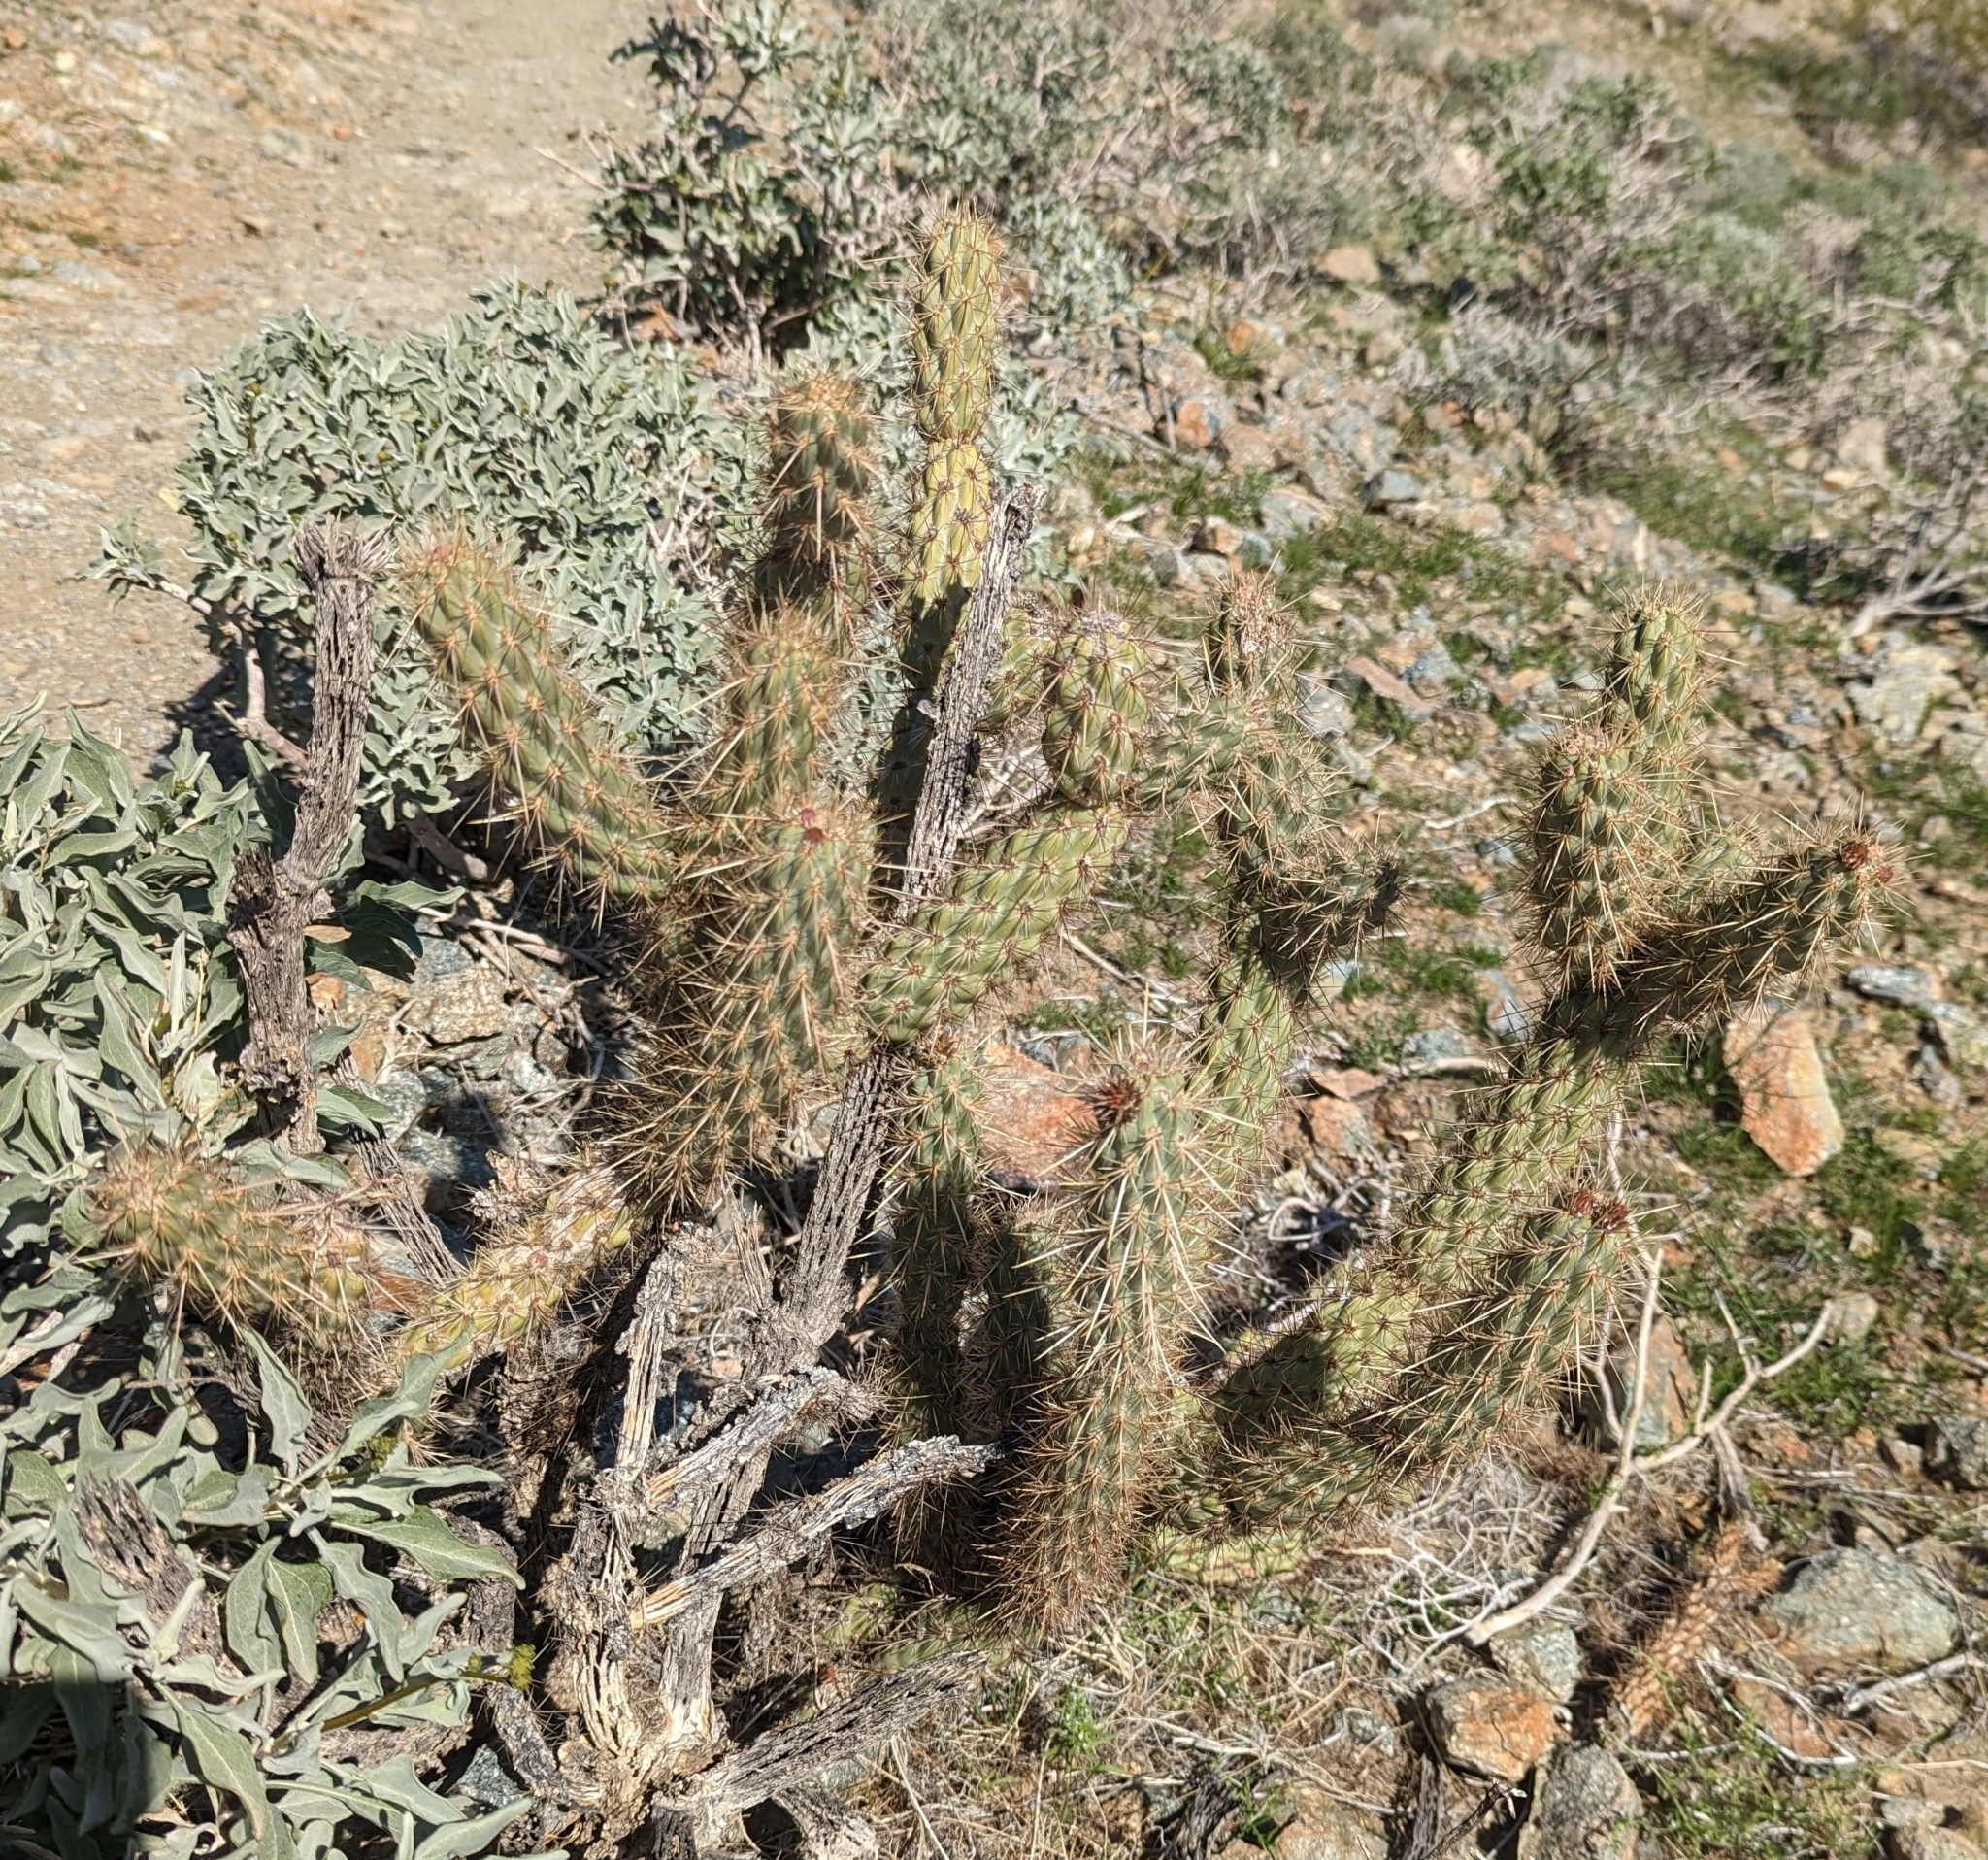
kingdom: Plantae
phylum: Tracheophyta
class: Magnoliopsida
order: Caryophyllales
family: Cactaceae
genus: Cylindropuntia
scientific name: Cylindropuntia ganderi
